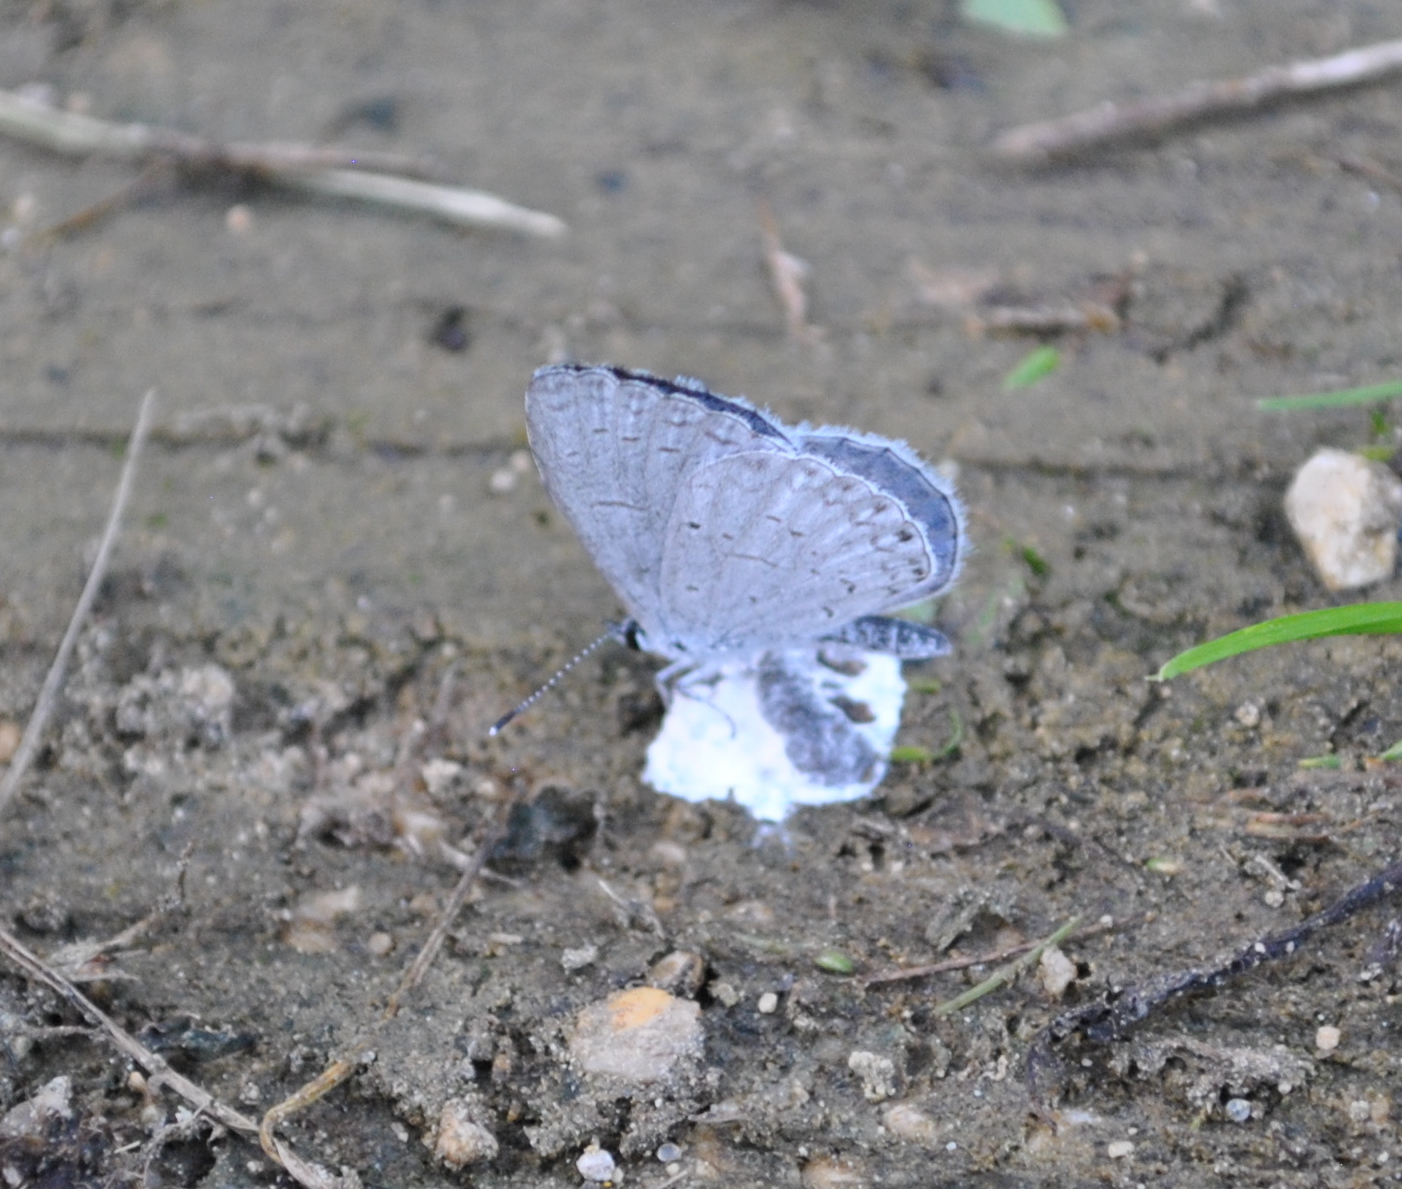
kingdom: Animalia
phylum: Arthropoda
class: Insecta
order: Lepidoptera
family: Lycaenidae
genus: Cyaniris
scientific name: Cyaniris neglecta
